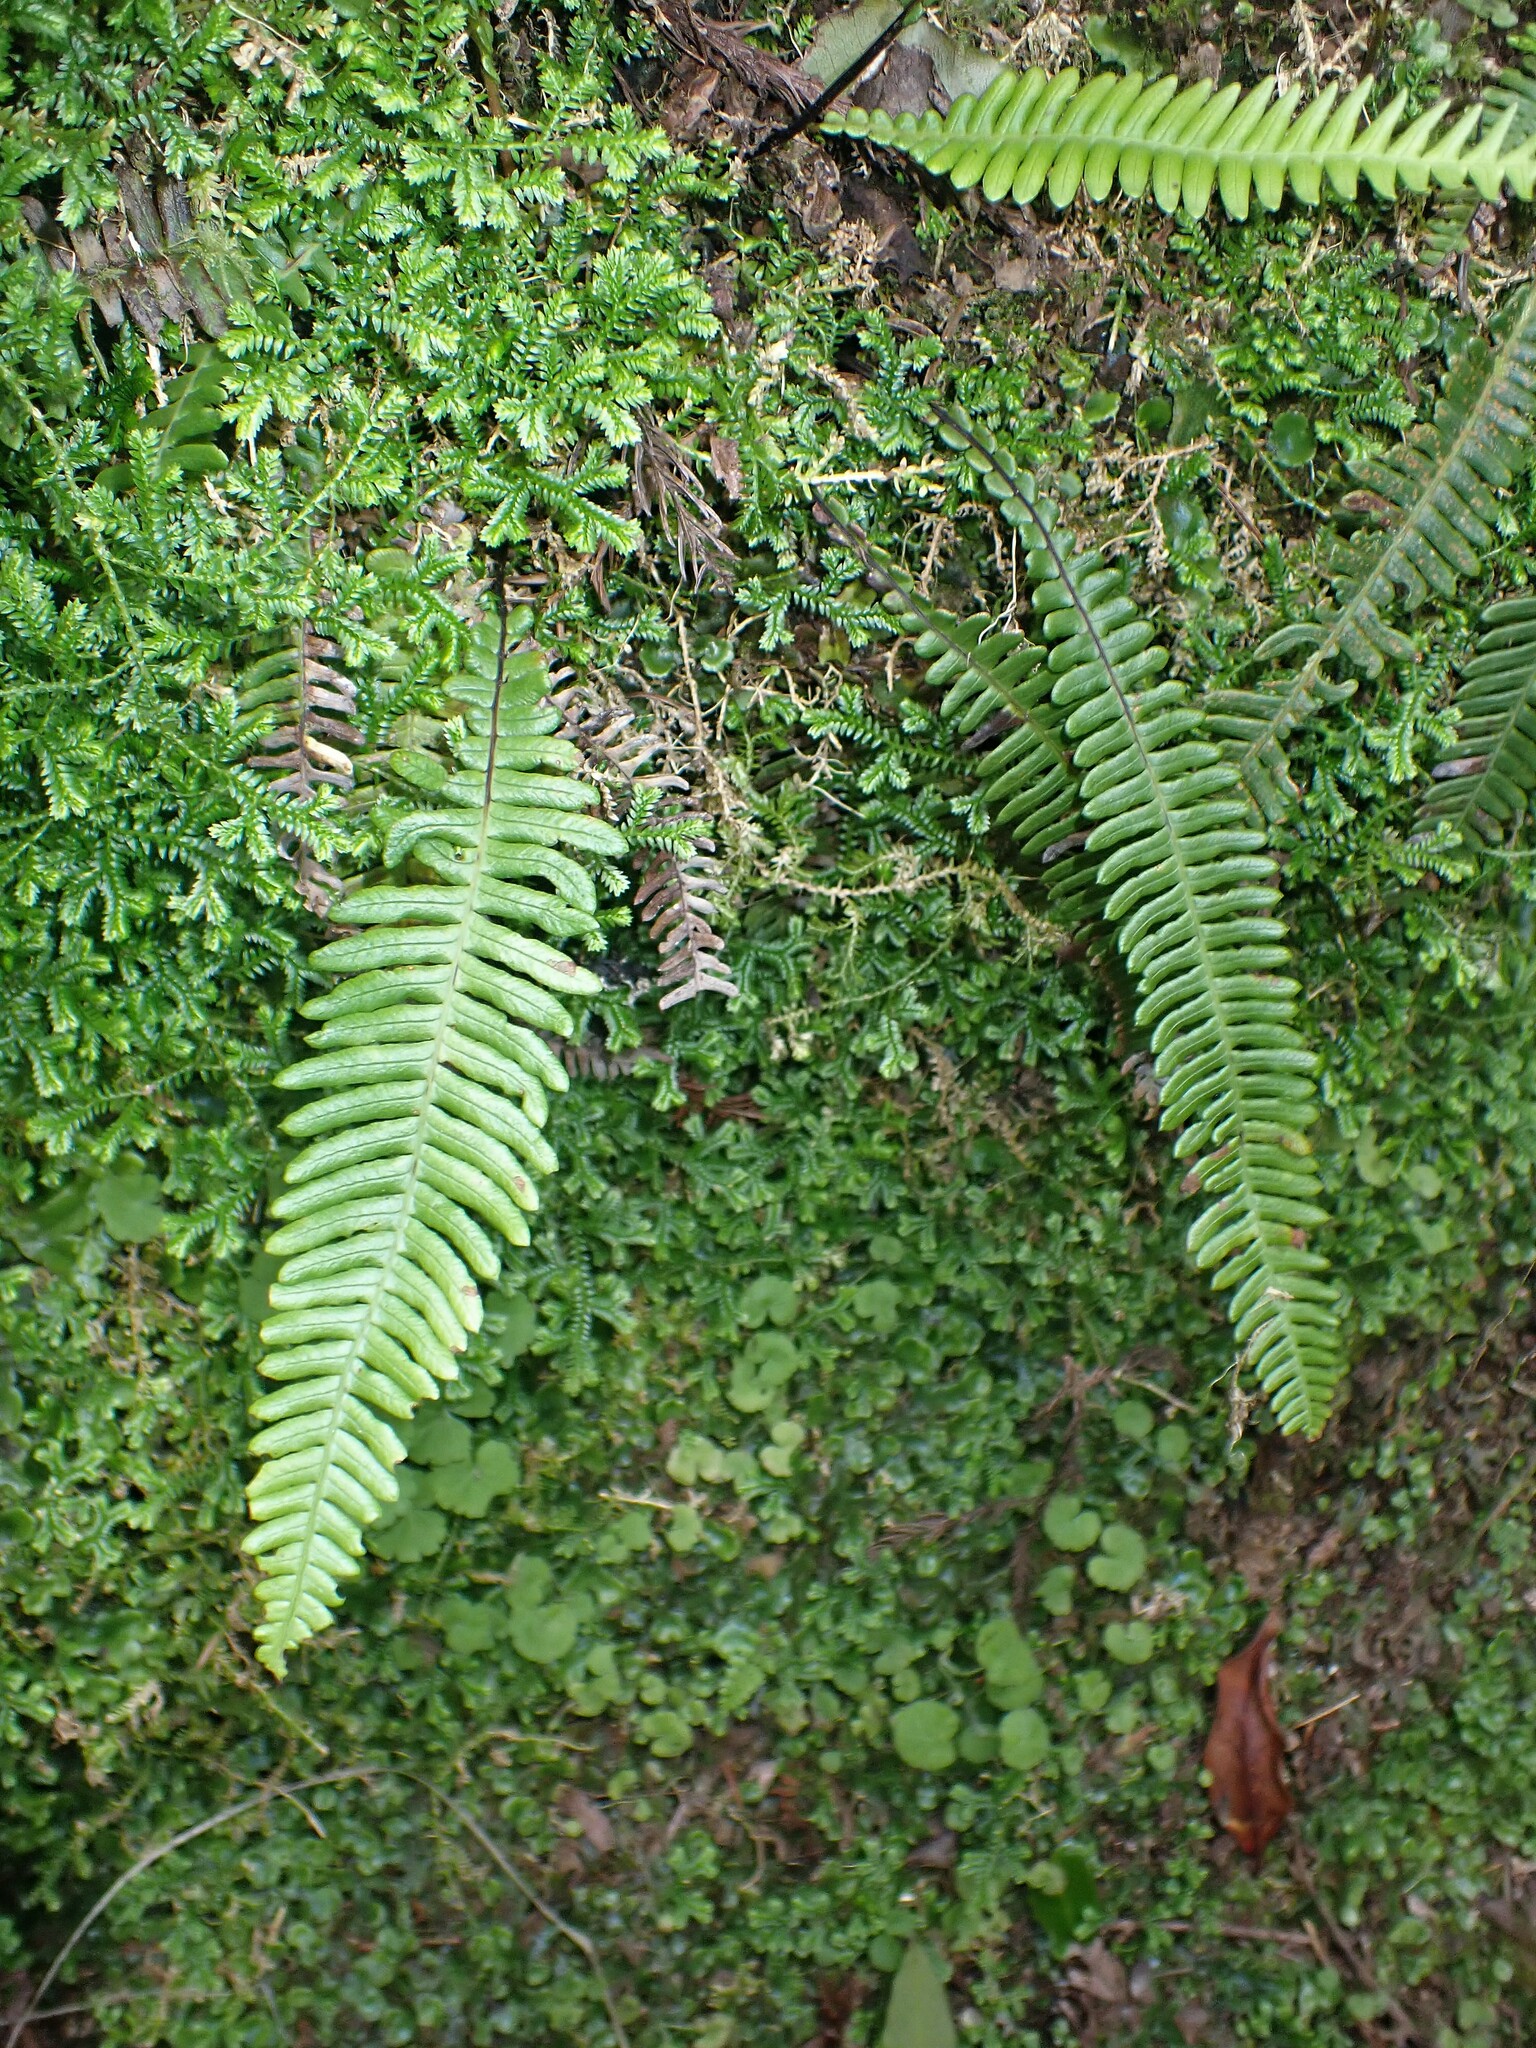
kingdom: Plantae
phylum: Tracheophyta
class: Polypodiopsida
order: Polypodiales
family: Blechnaceae
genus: Struthiopteris
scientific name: Struthiopteris spicant
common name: Deer fern
